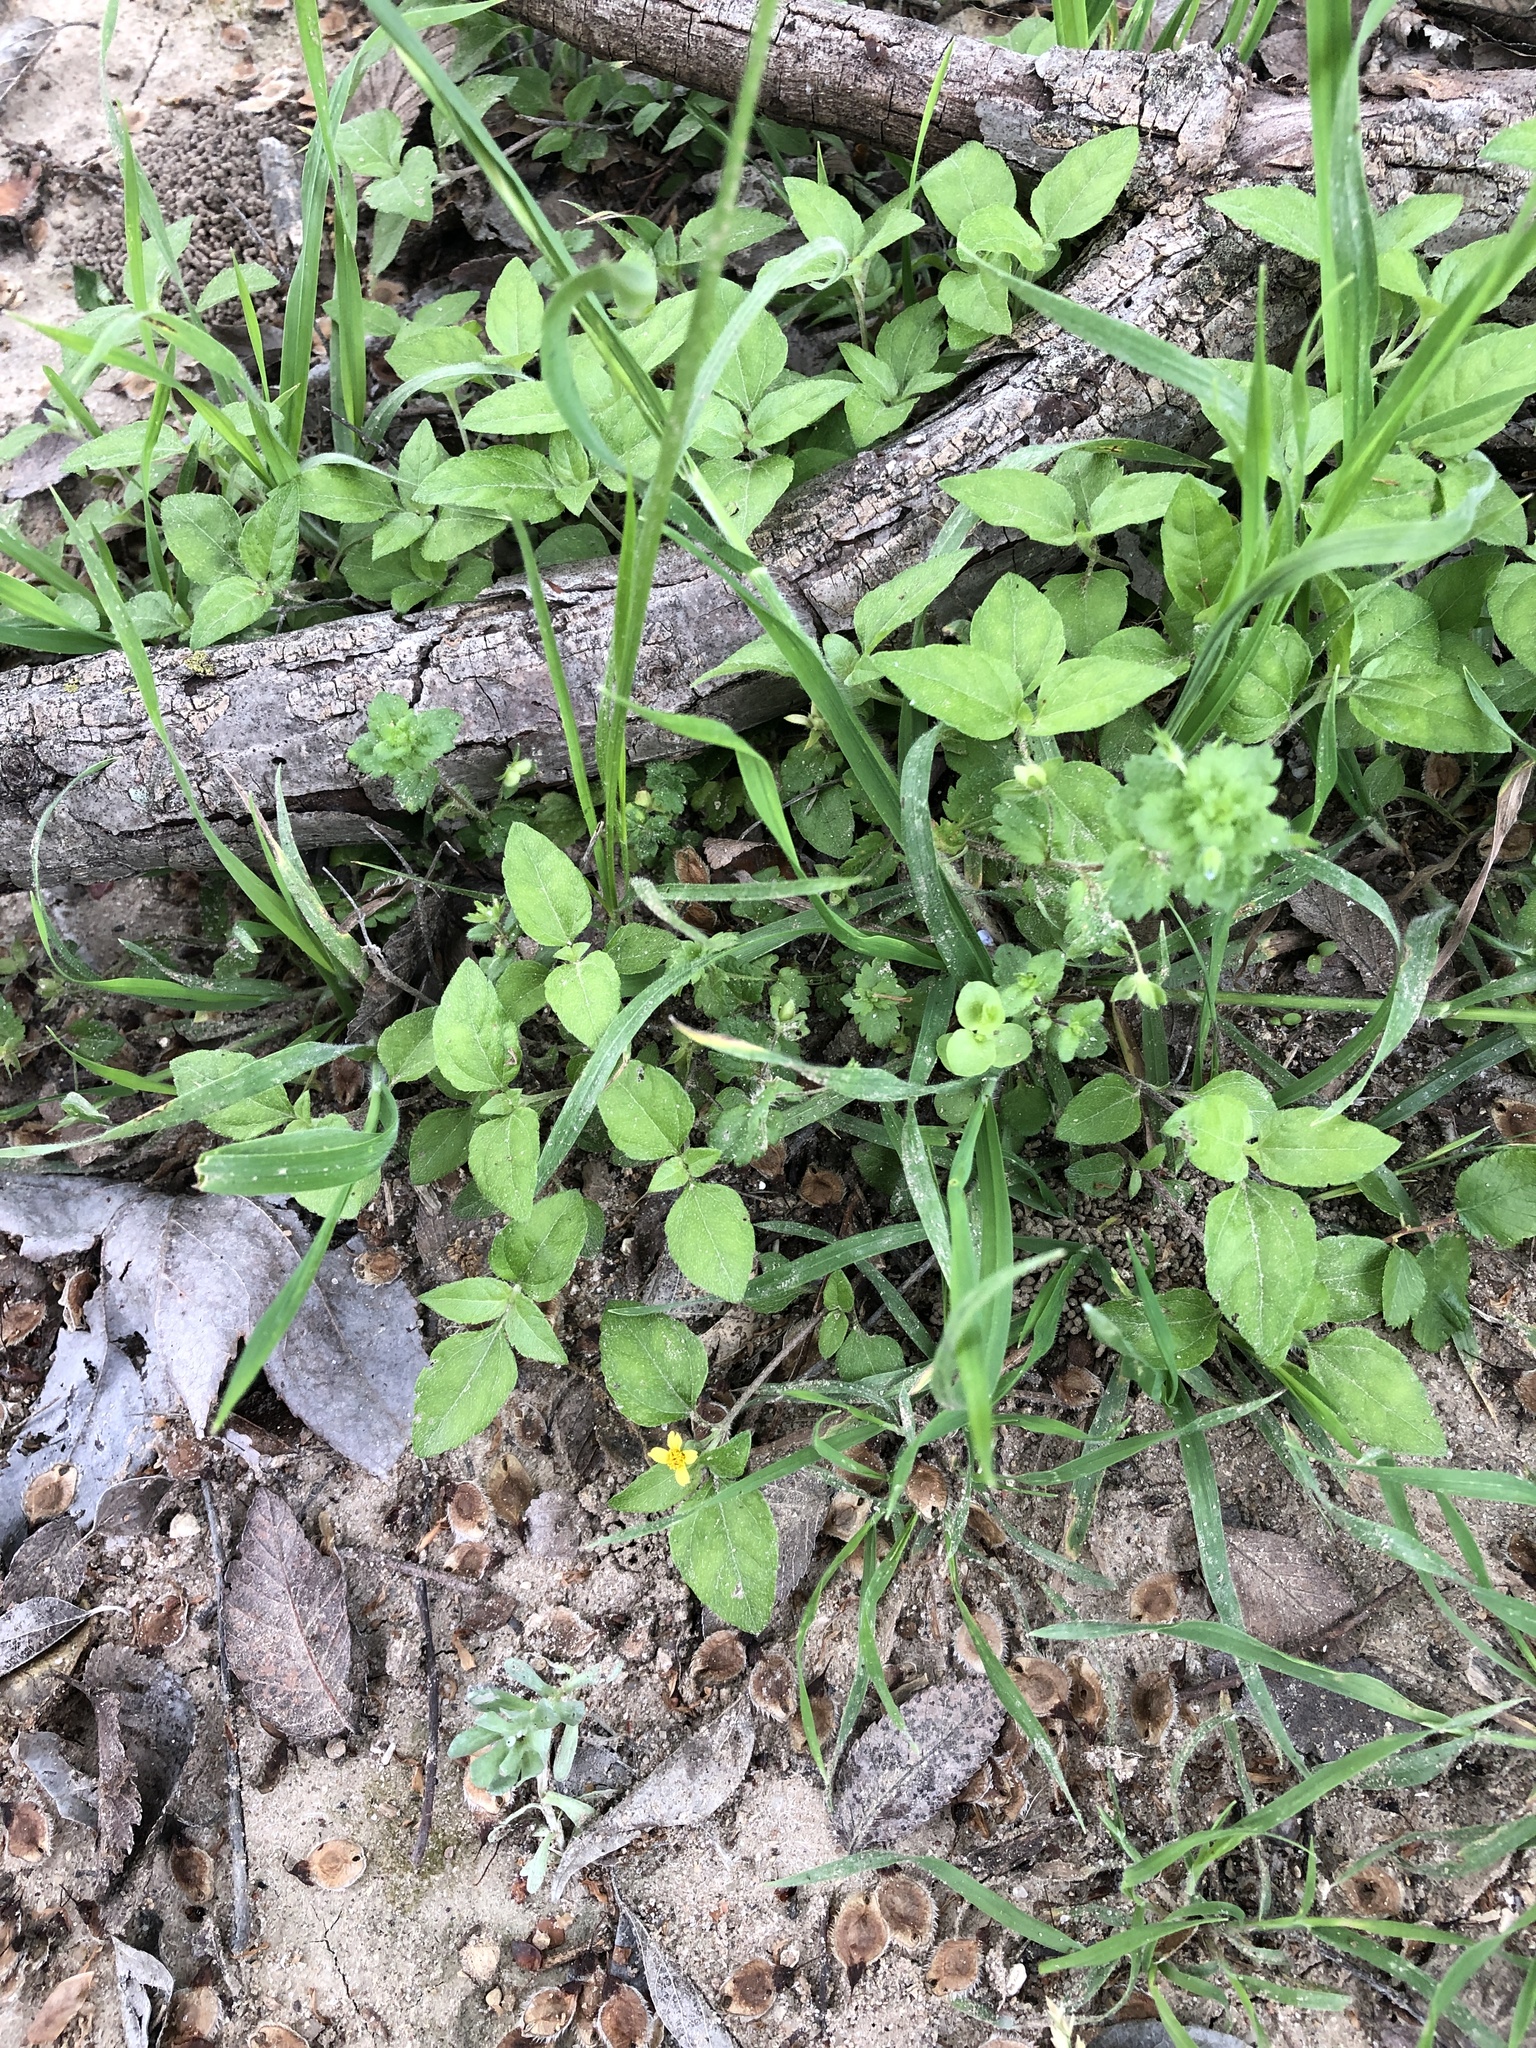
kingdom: Plantae
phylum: Tracheophyta
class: Magnoliopsida
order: Asterales
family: Asteraceae
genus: Calyptocarpus
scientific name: Calyptocarpus vialis
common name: Straggler daisy
